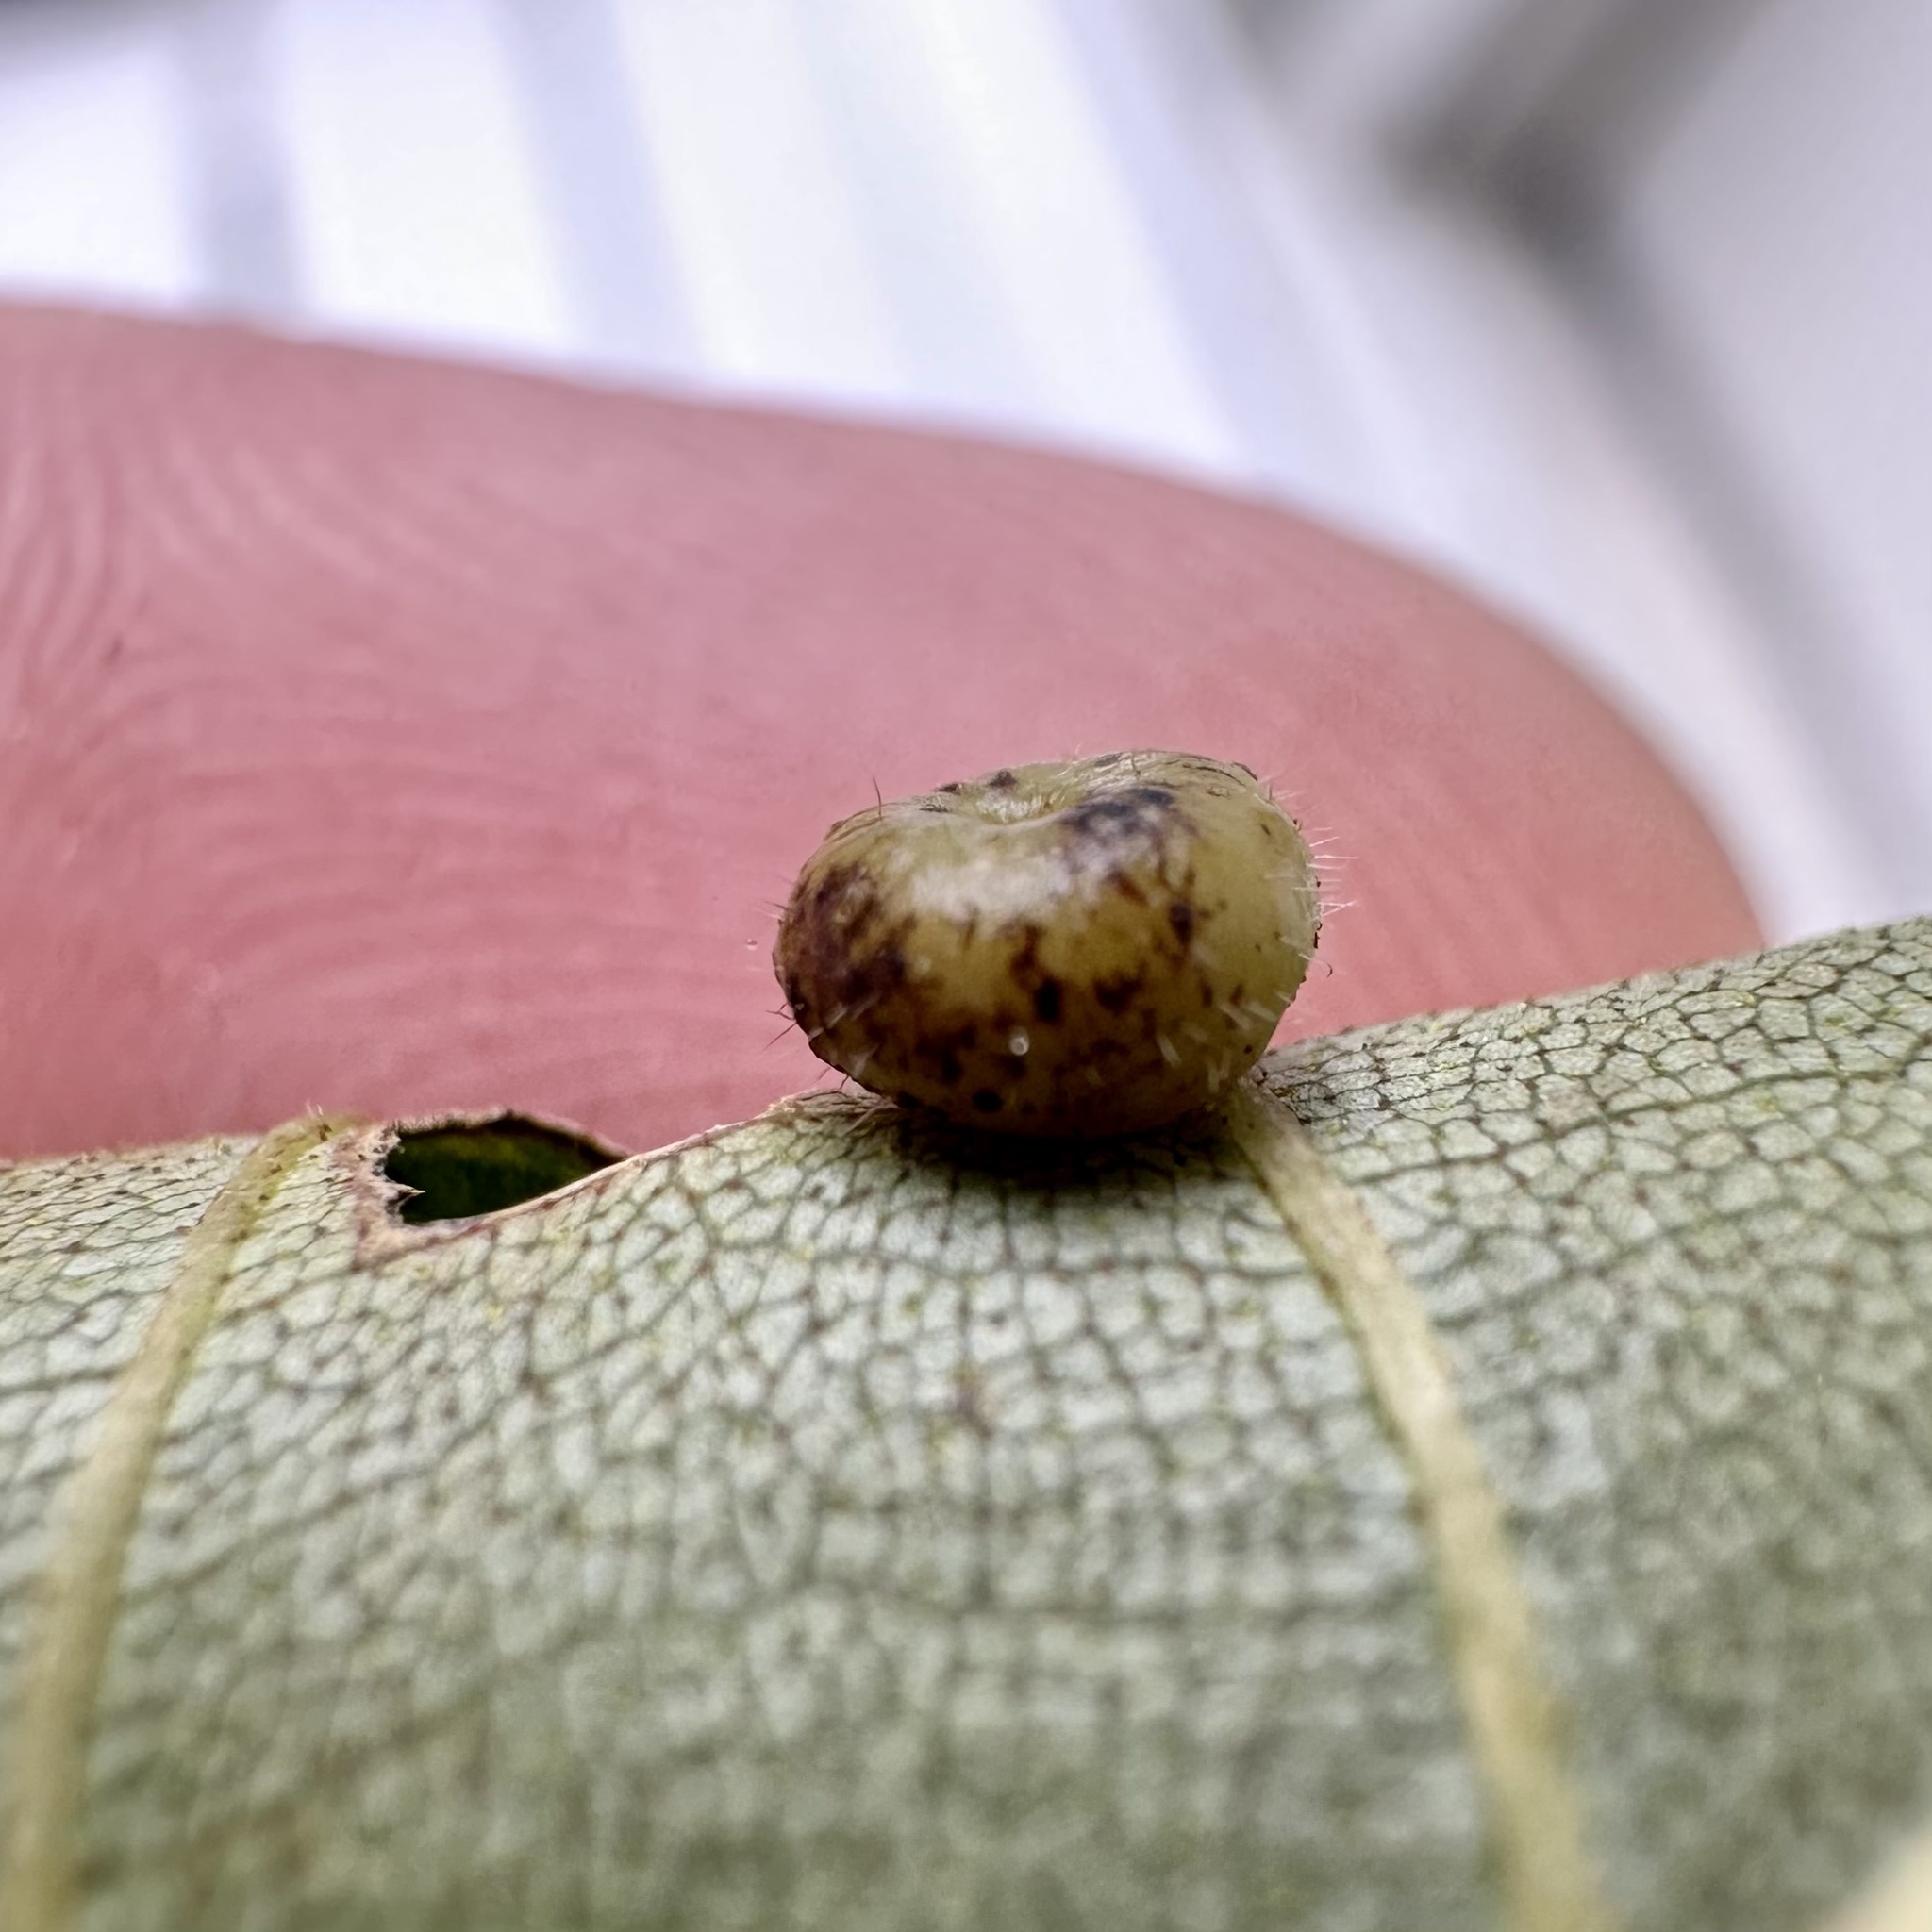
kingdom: Animalia
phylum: Arthropoda
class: Insecta
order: Diptera
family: Cecidomyiidae
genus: Caryomyia
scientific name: Caryomyia thompsoni
